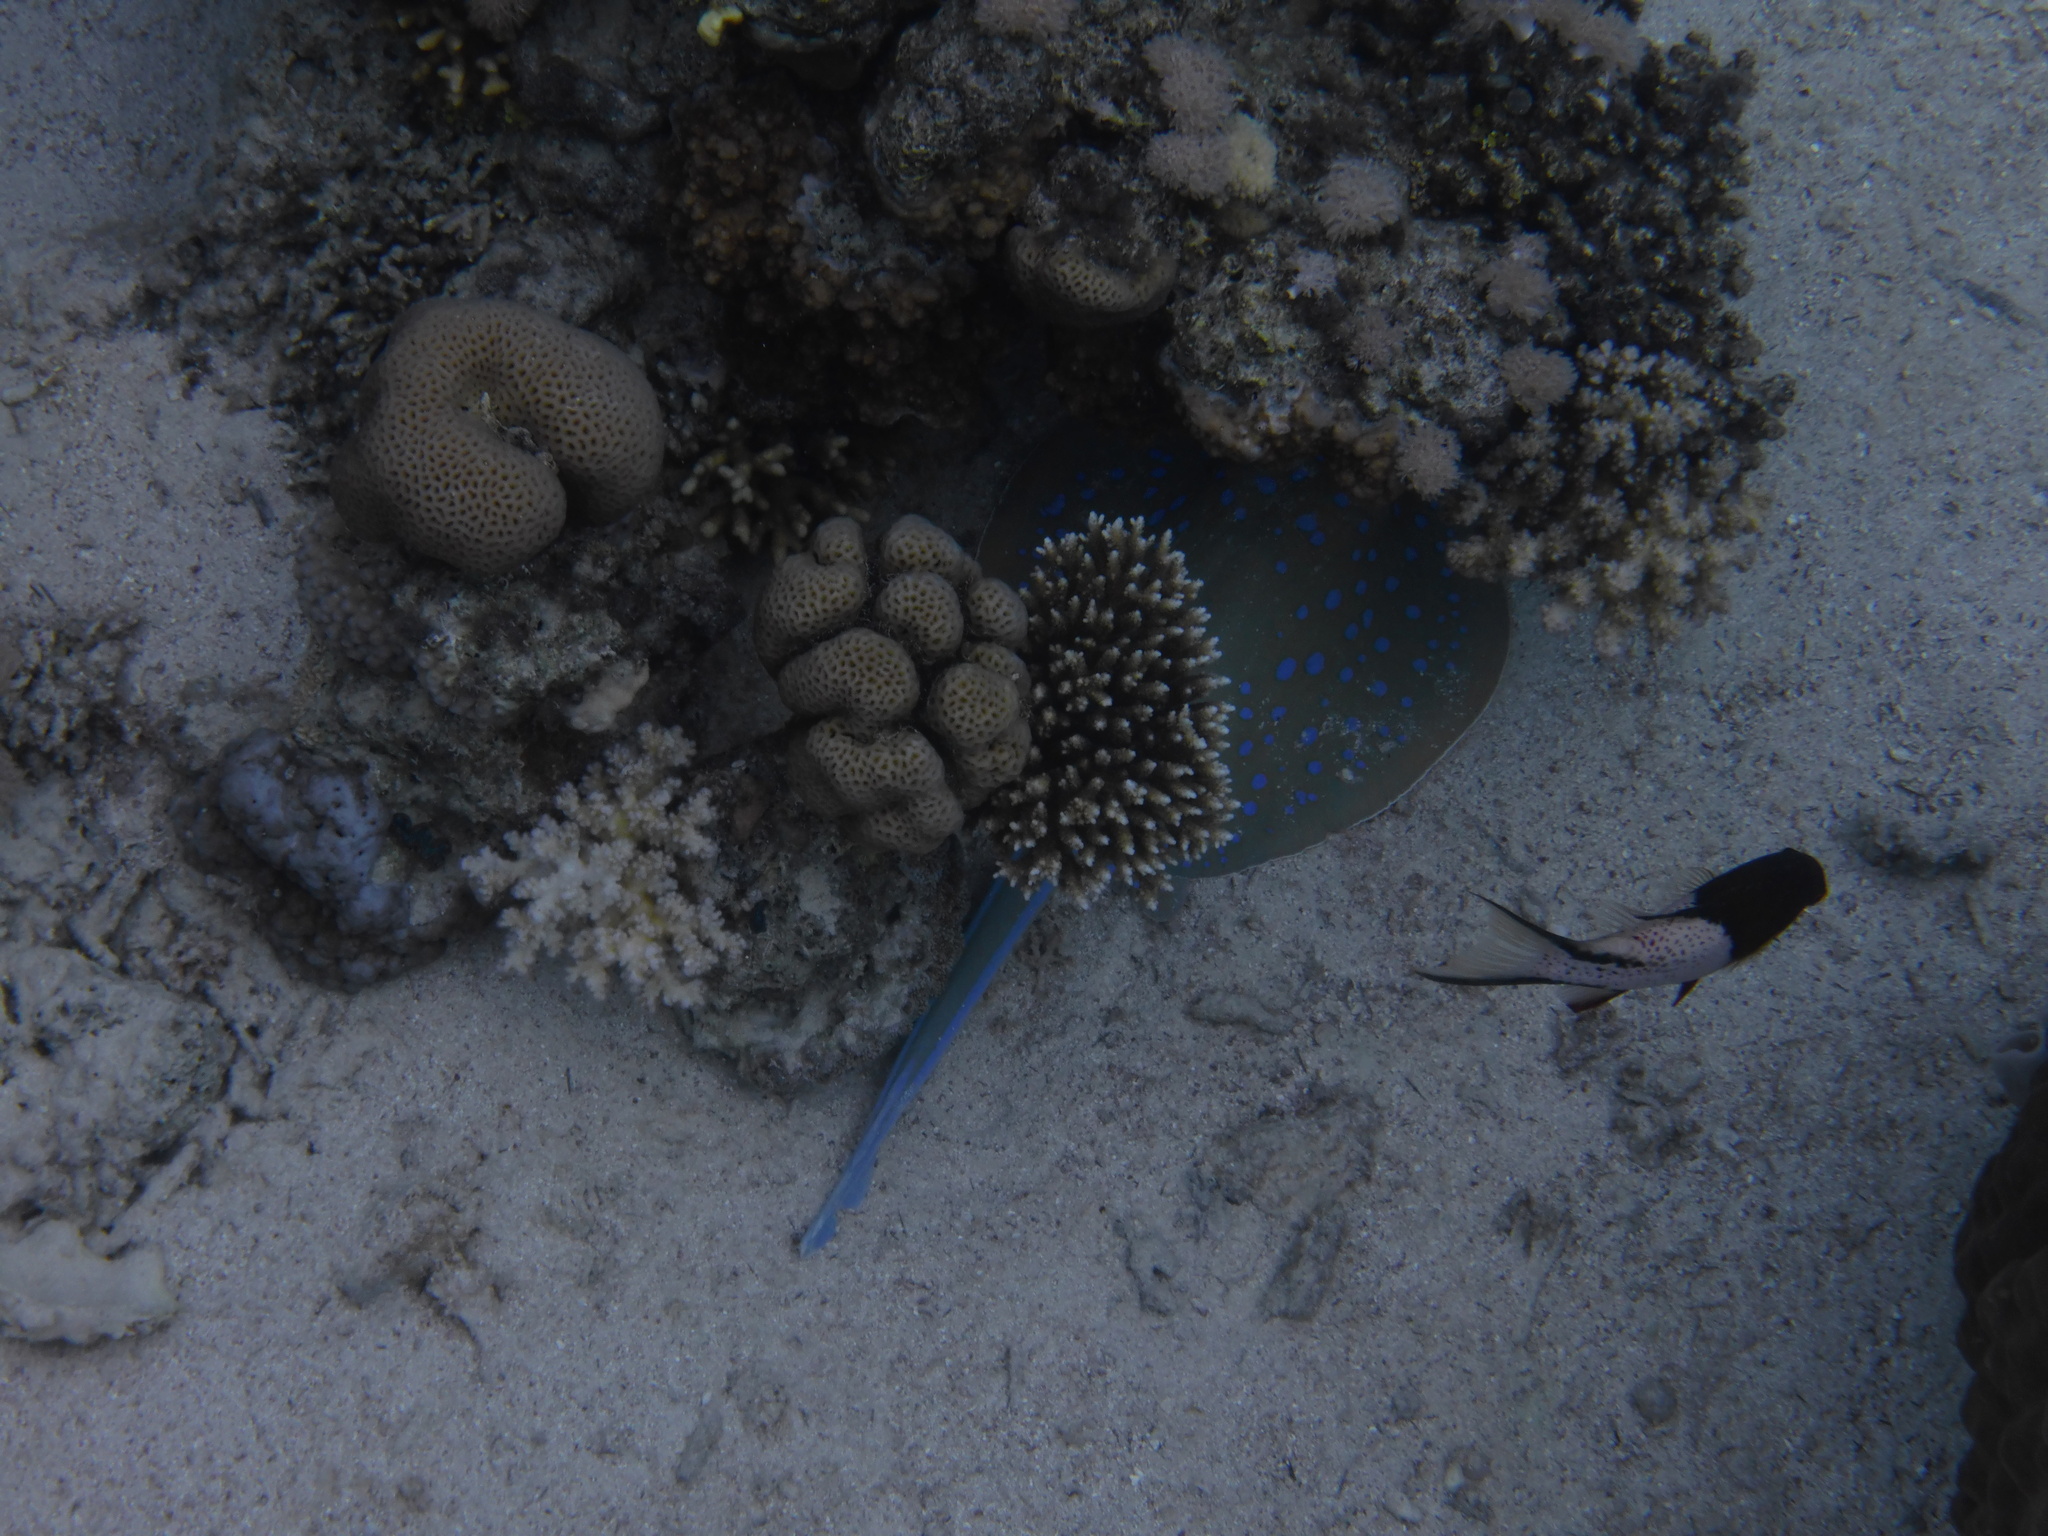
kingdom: Animalia
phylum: Chordata
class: Elasmobranchii
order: Myliobatiformes
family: Dasyatidae
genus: Taeniura
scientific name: Taeniura lymma
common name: Bluespotted ribbontail ray
